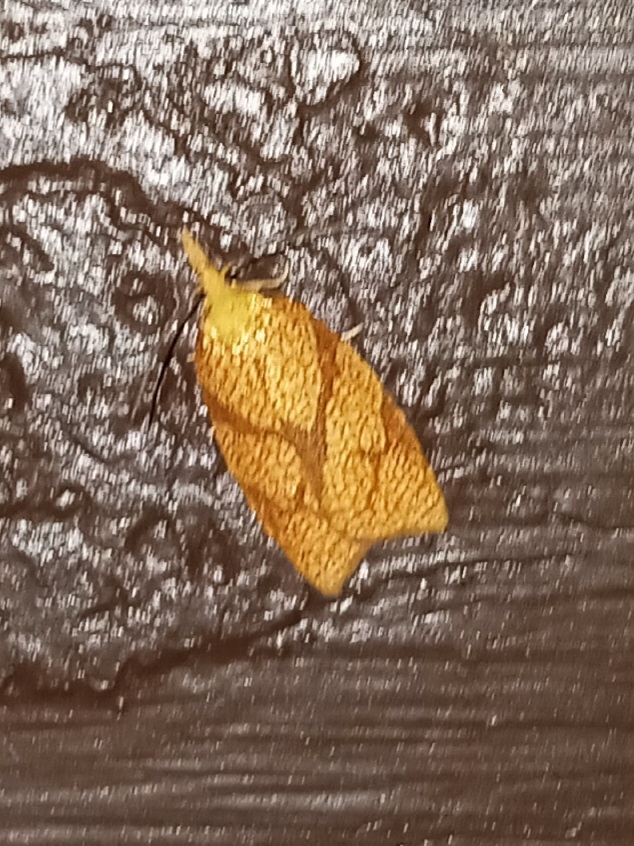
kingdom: Animalia
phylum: Arthropoda
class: Insecta
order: Lepidoptera
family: Tortricidae
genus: Cenopis
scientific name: Cenopis reticulatana
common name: Reticulated fruitworm moth
